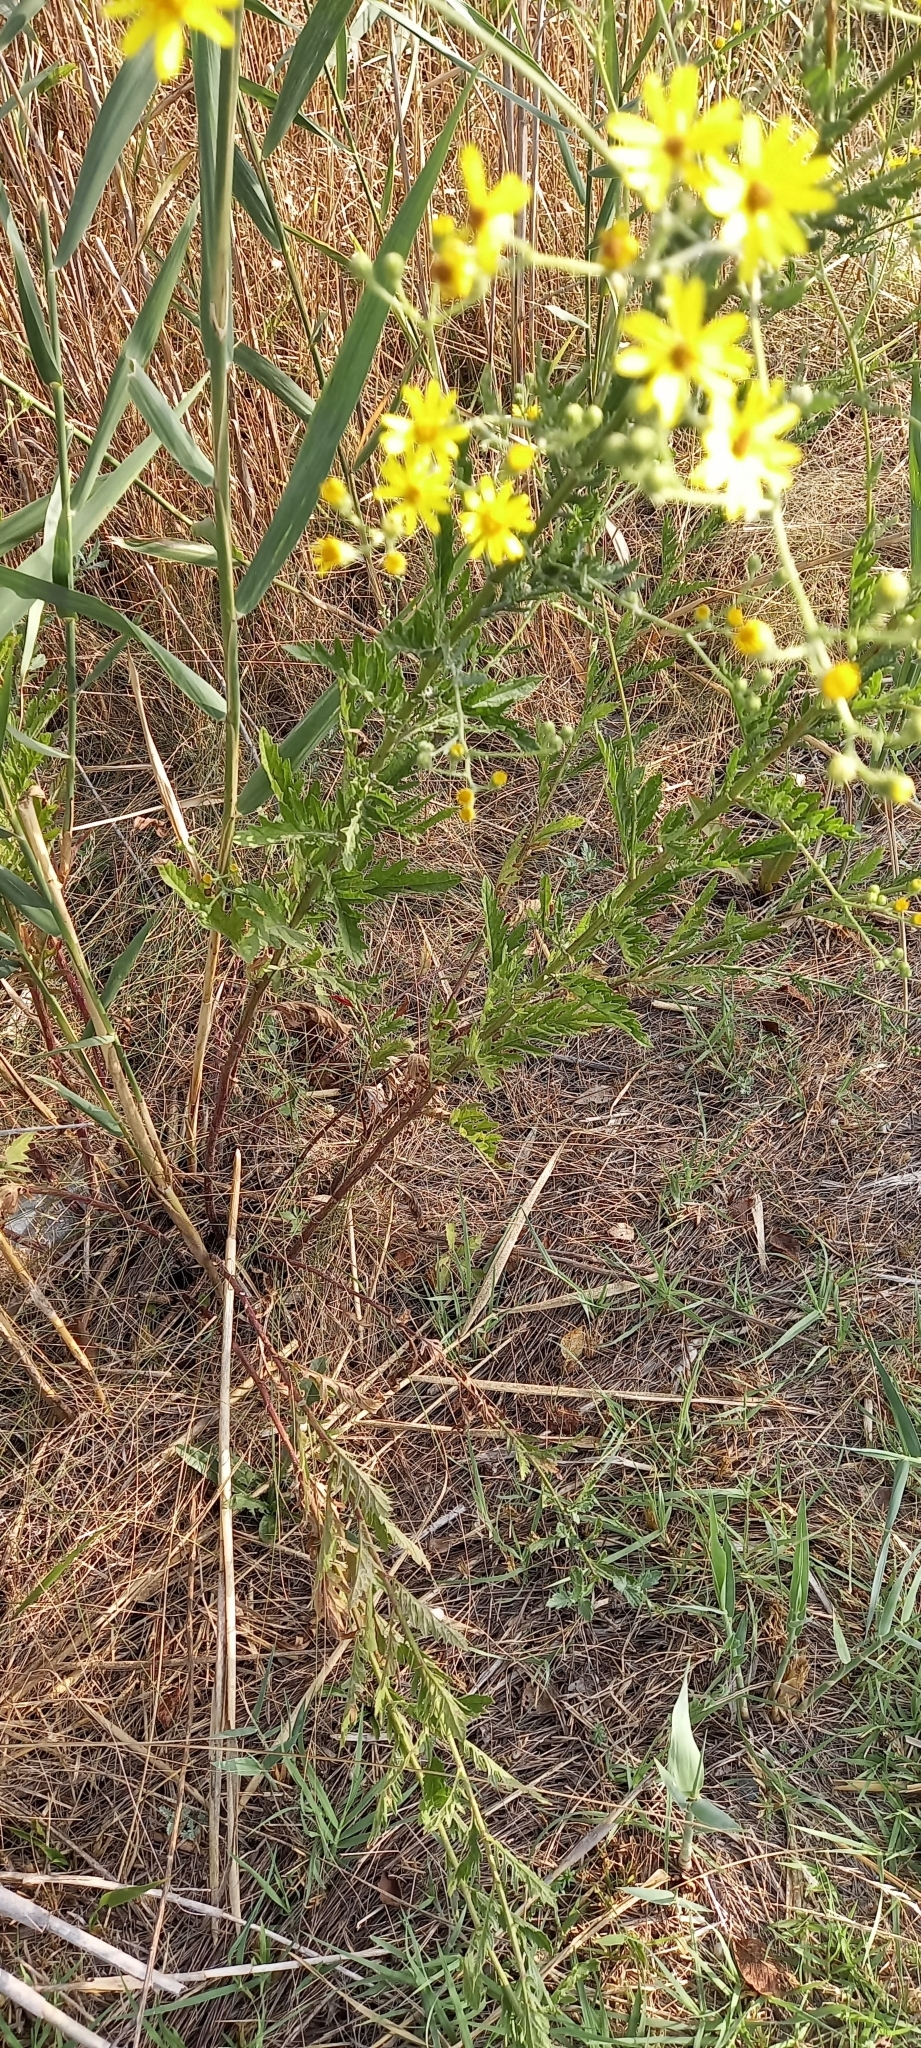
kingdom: Plantae
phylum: Tracheophyta
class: Magnoliopsida
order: Asterales
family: Asteraceae
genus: Jacobaea
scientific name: Jacobaea erucifolia
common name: Hoary ragwort
